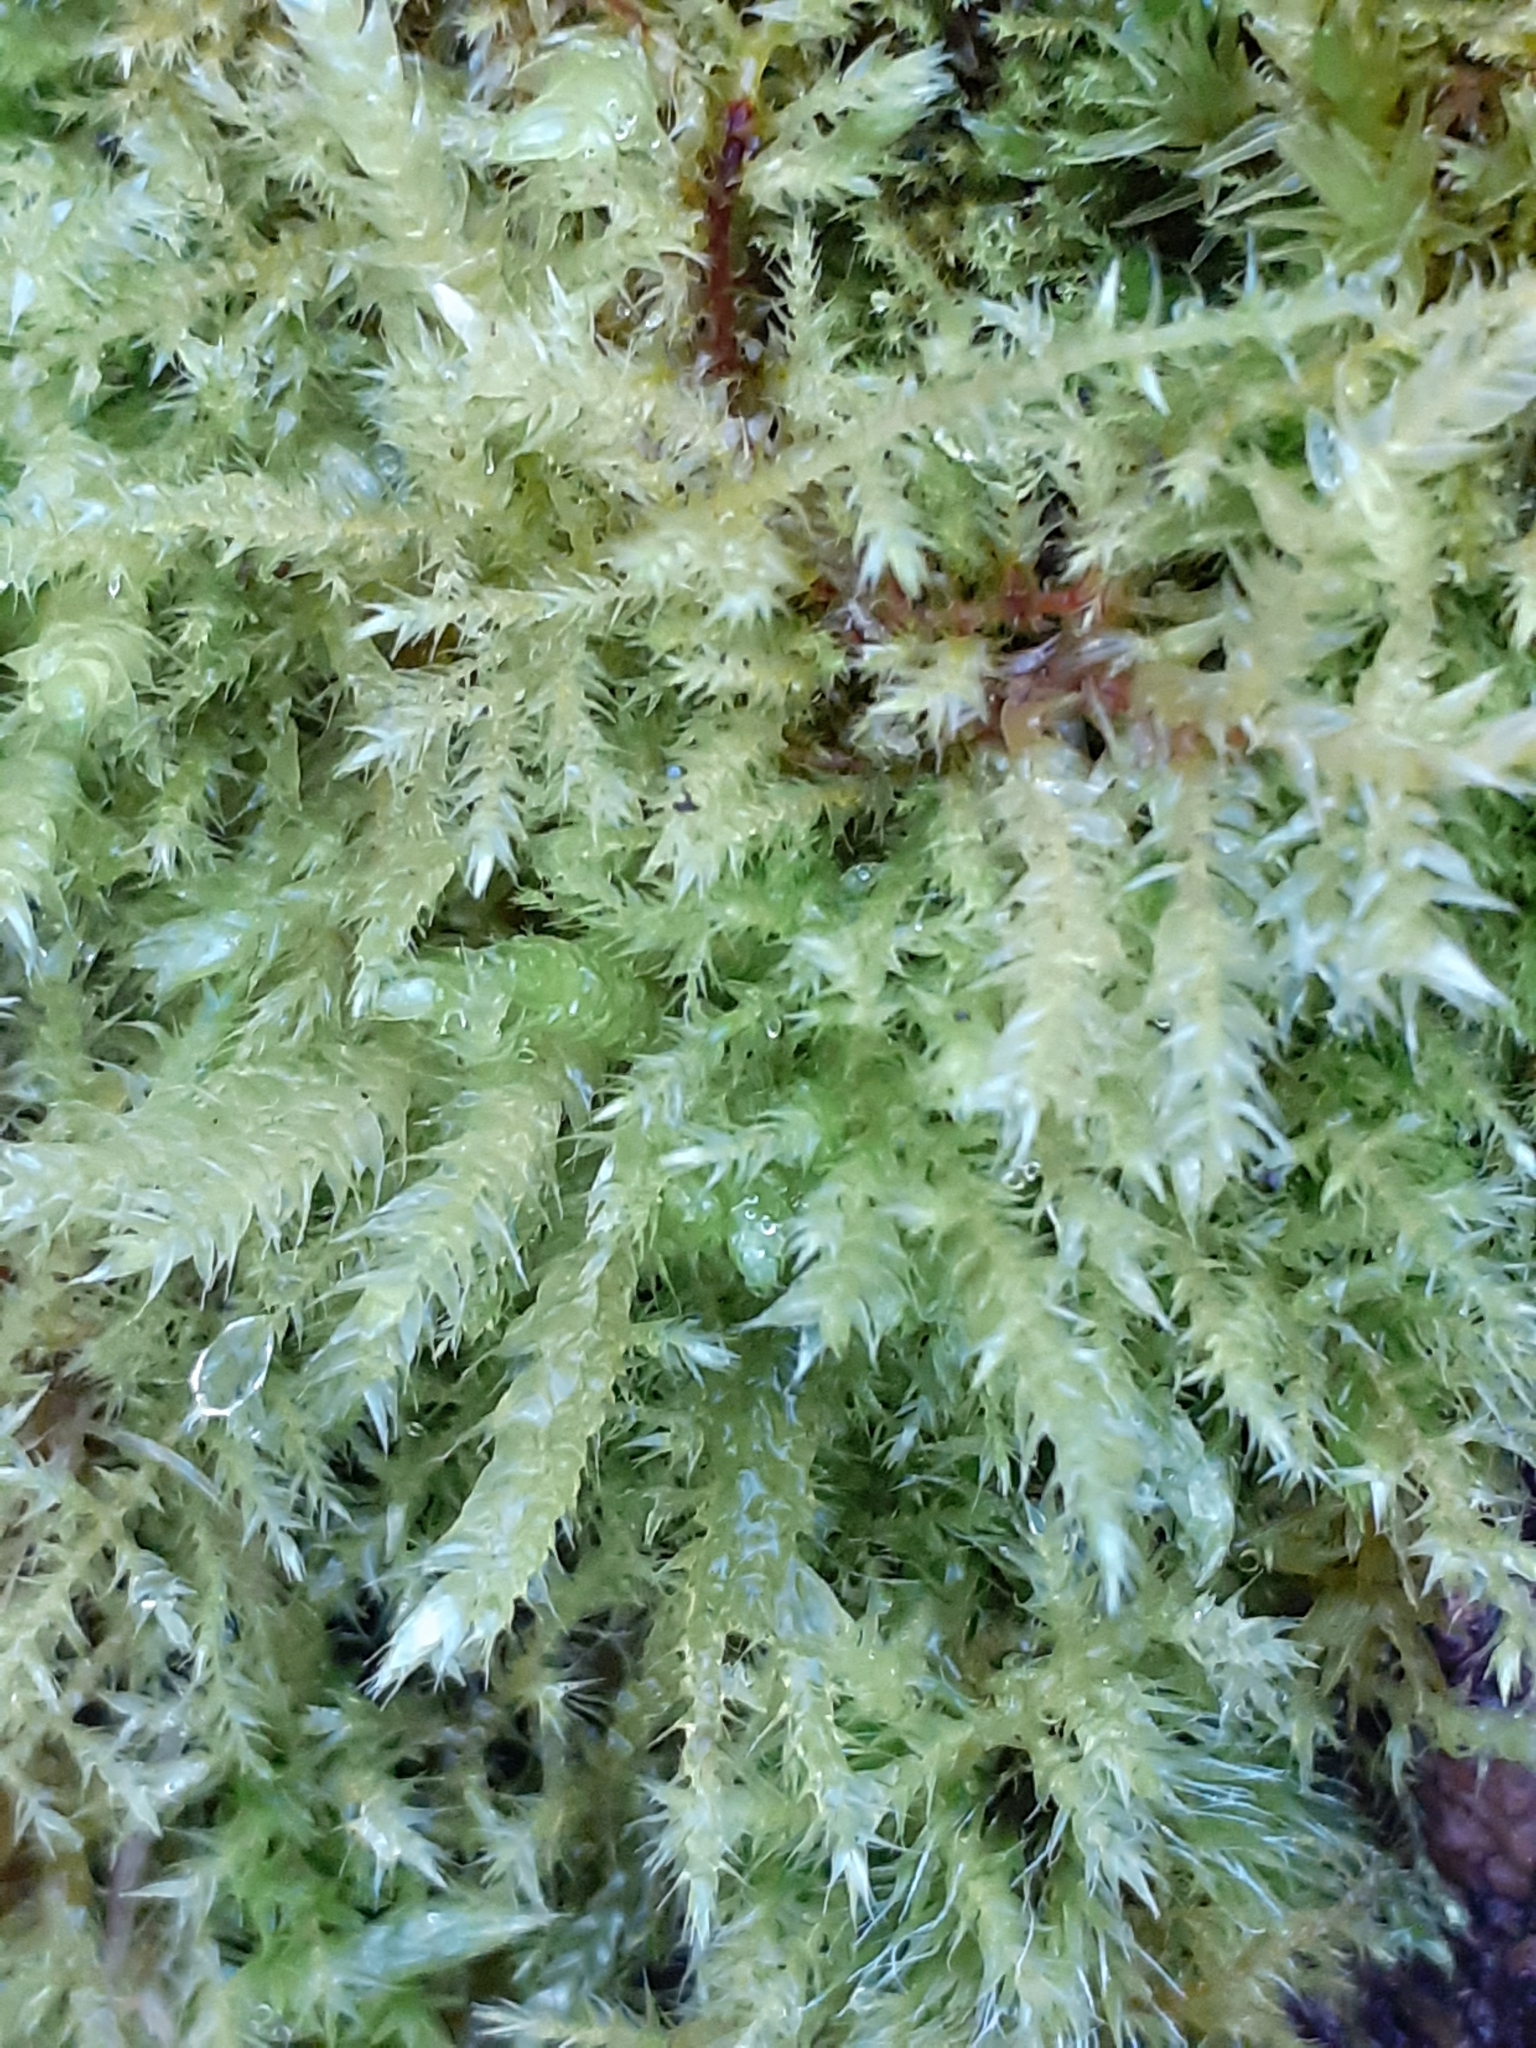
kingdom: Plantae
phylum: Bryophyta
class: Bryopsida
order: Hypnales
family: Brachytheciaceae
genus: Brachythecium
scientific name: Brachythecium rutabulum
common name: Rough-stalked feather-moss
